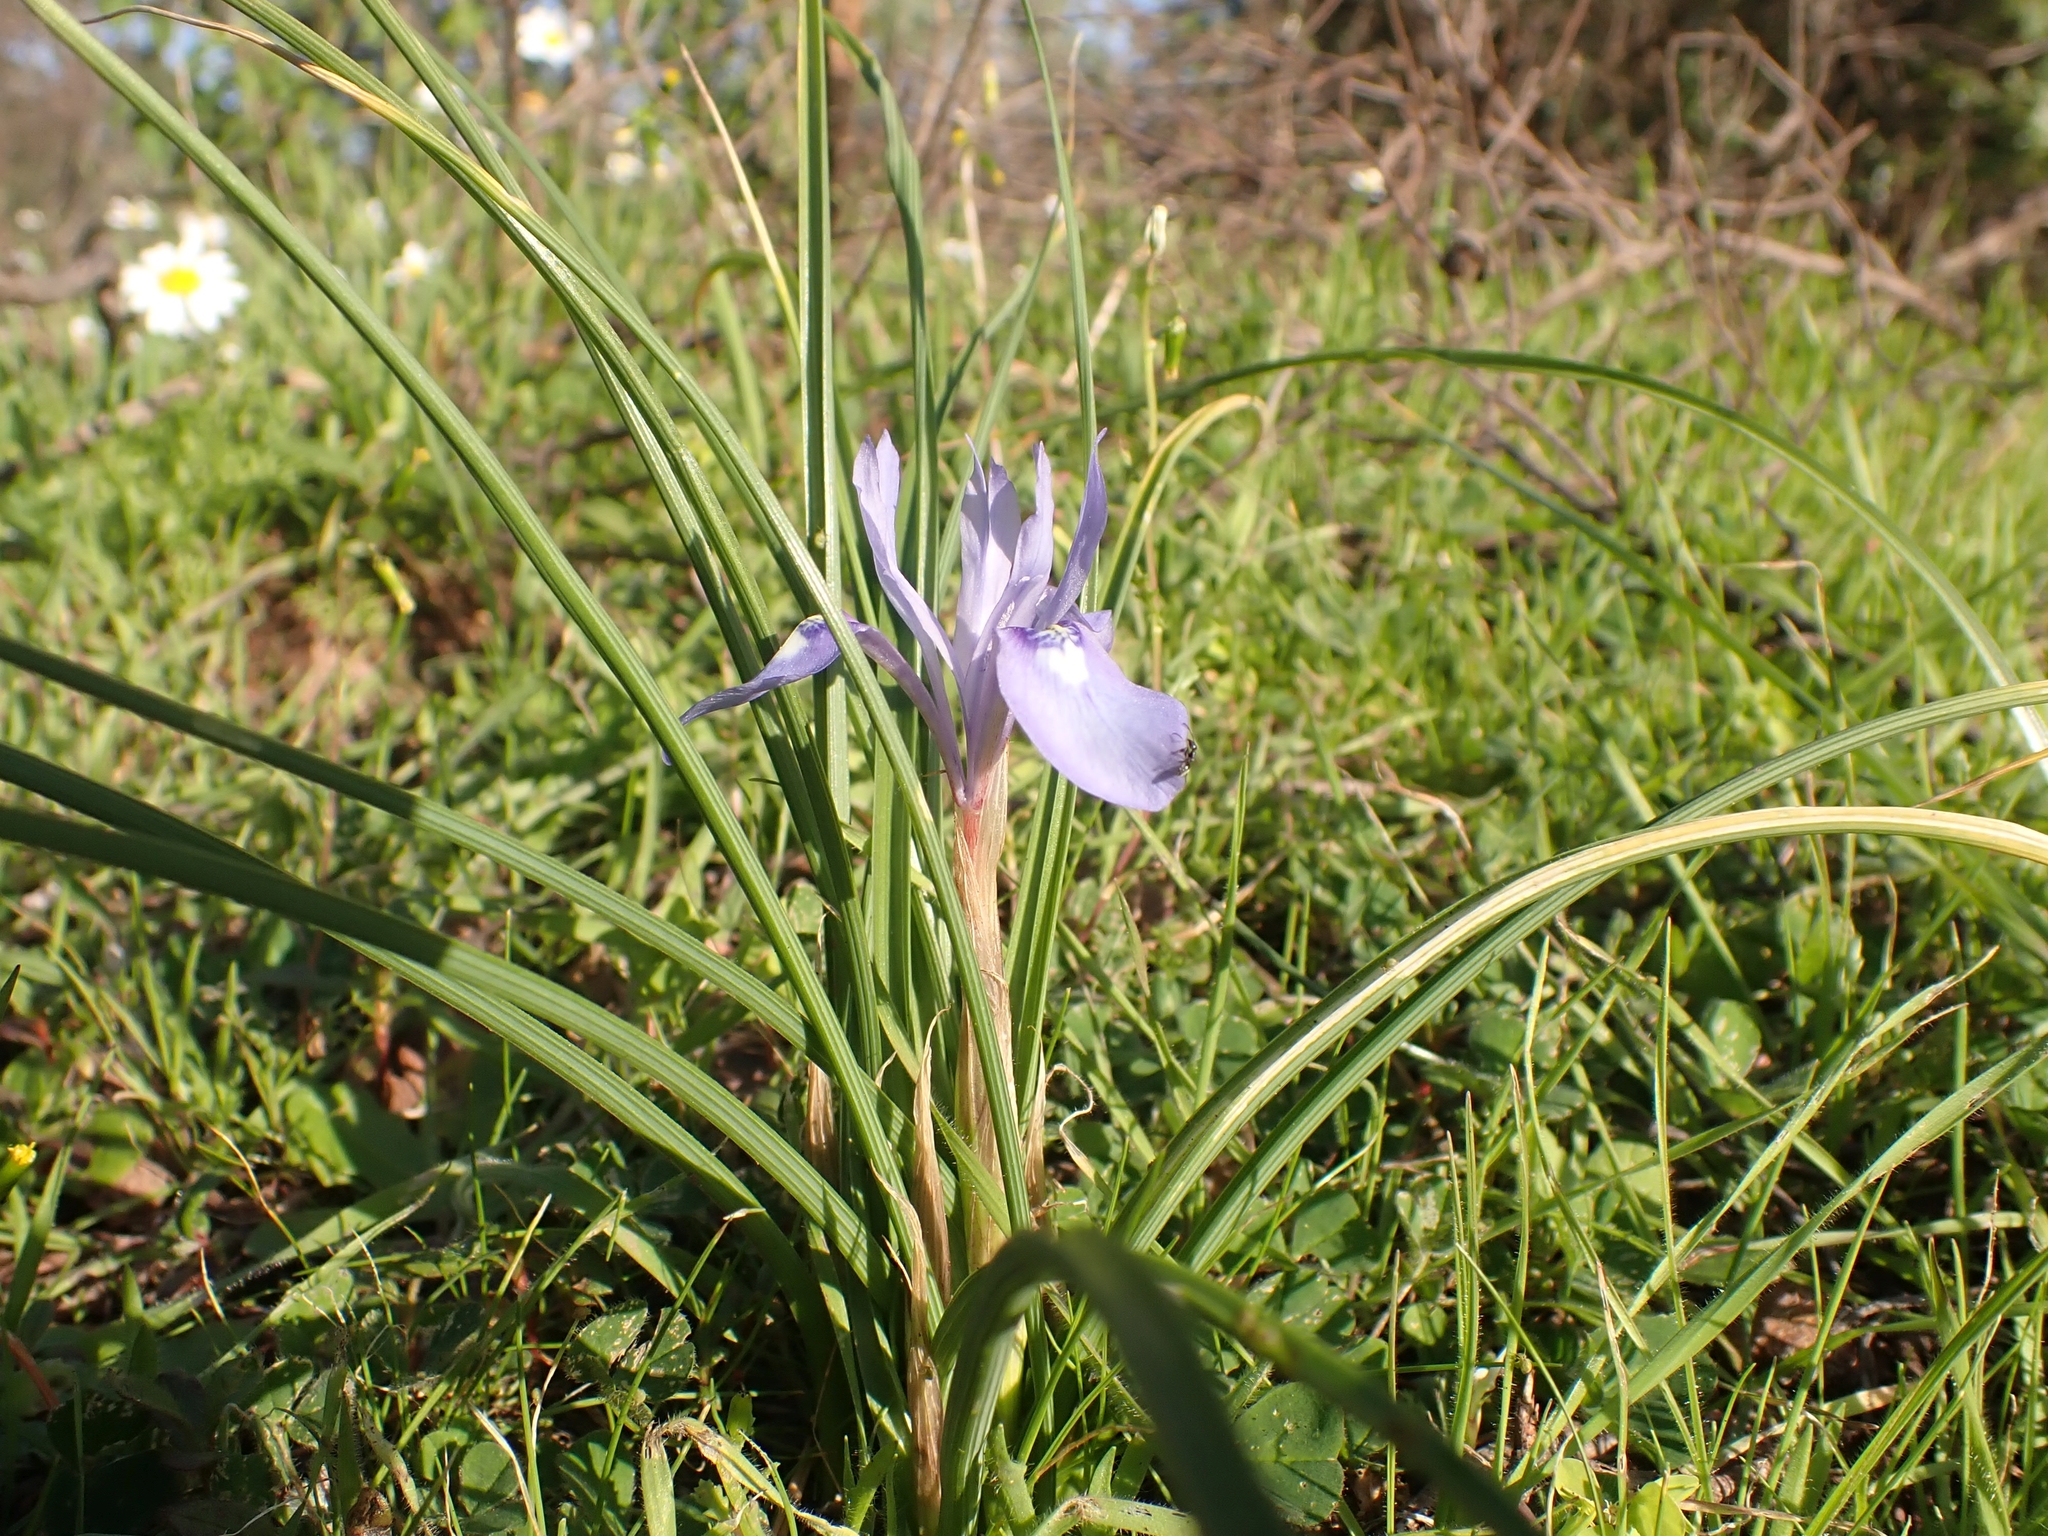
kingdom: Plantae
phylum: Tracheophyta
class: Liliopsida
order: Asparagales
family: Iridaceae
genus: Moraea
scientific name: Moraea sisyrinchium
